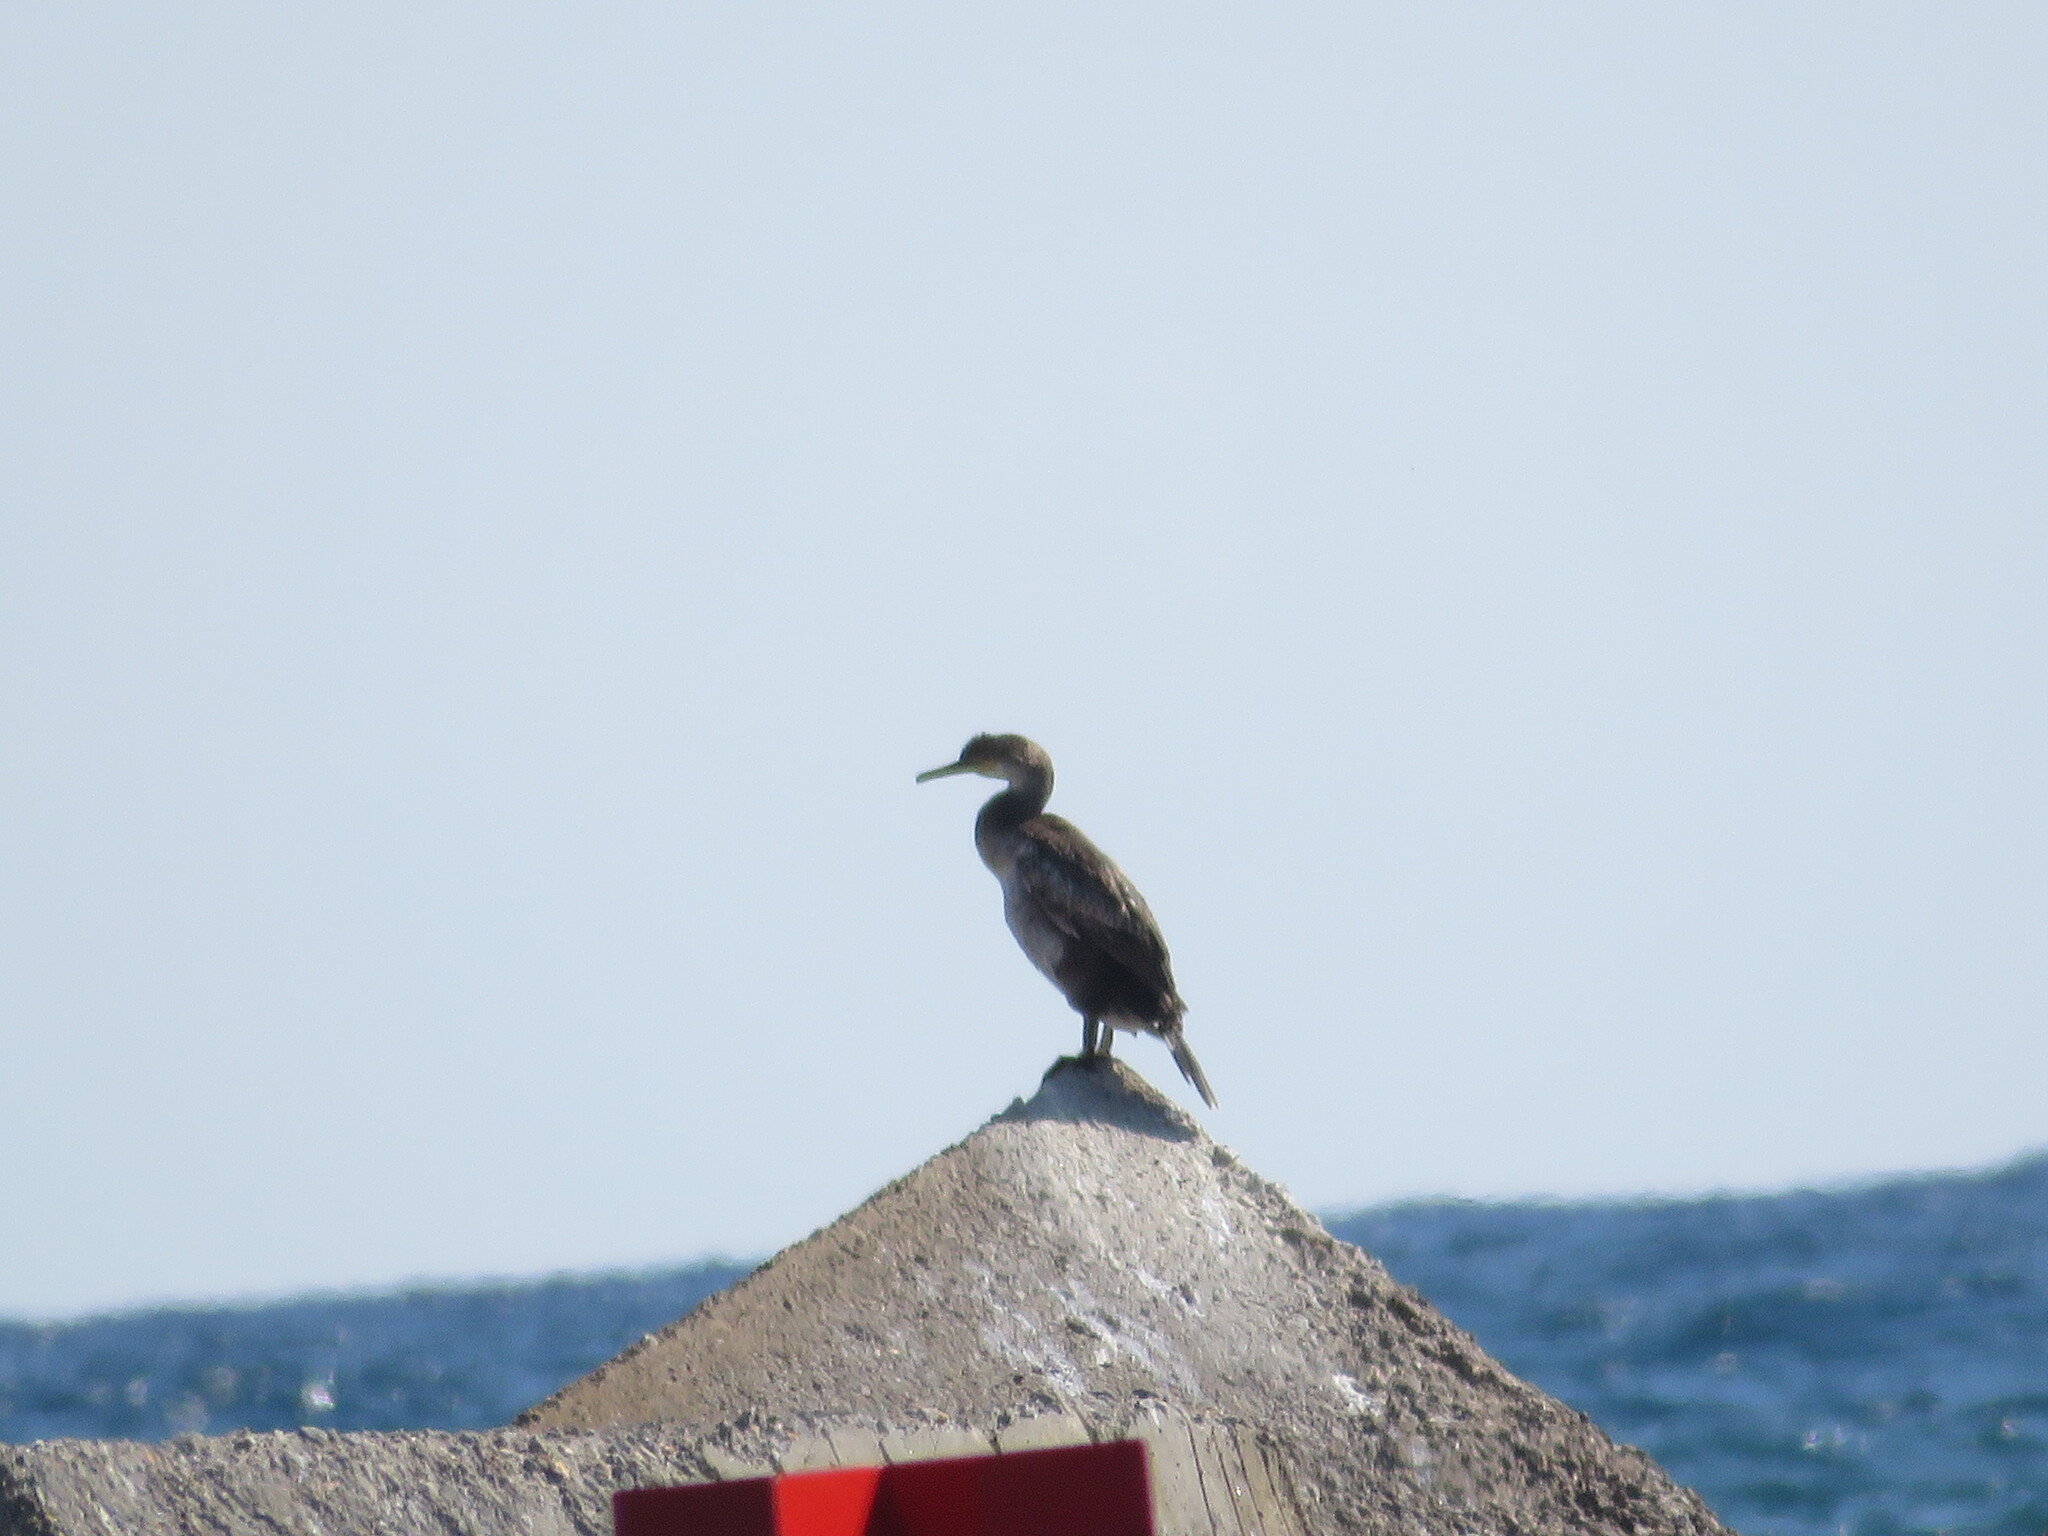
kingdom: Animalia
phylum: Chordata
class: Aves
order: Suliformes
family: Phalacrocoracidae
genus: Phalacrocorax
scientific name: Phalacrocorax aristotelis
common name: European shag
